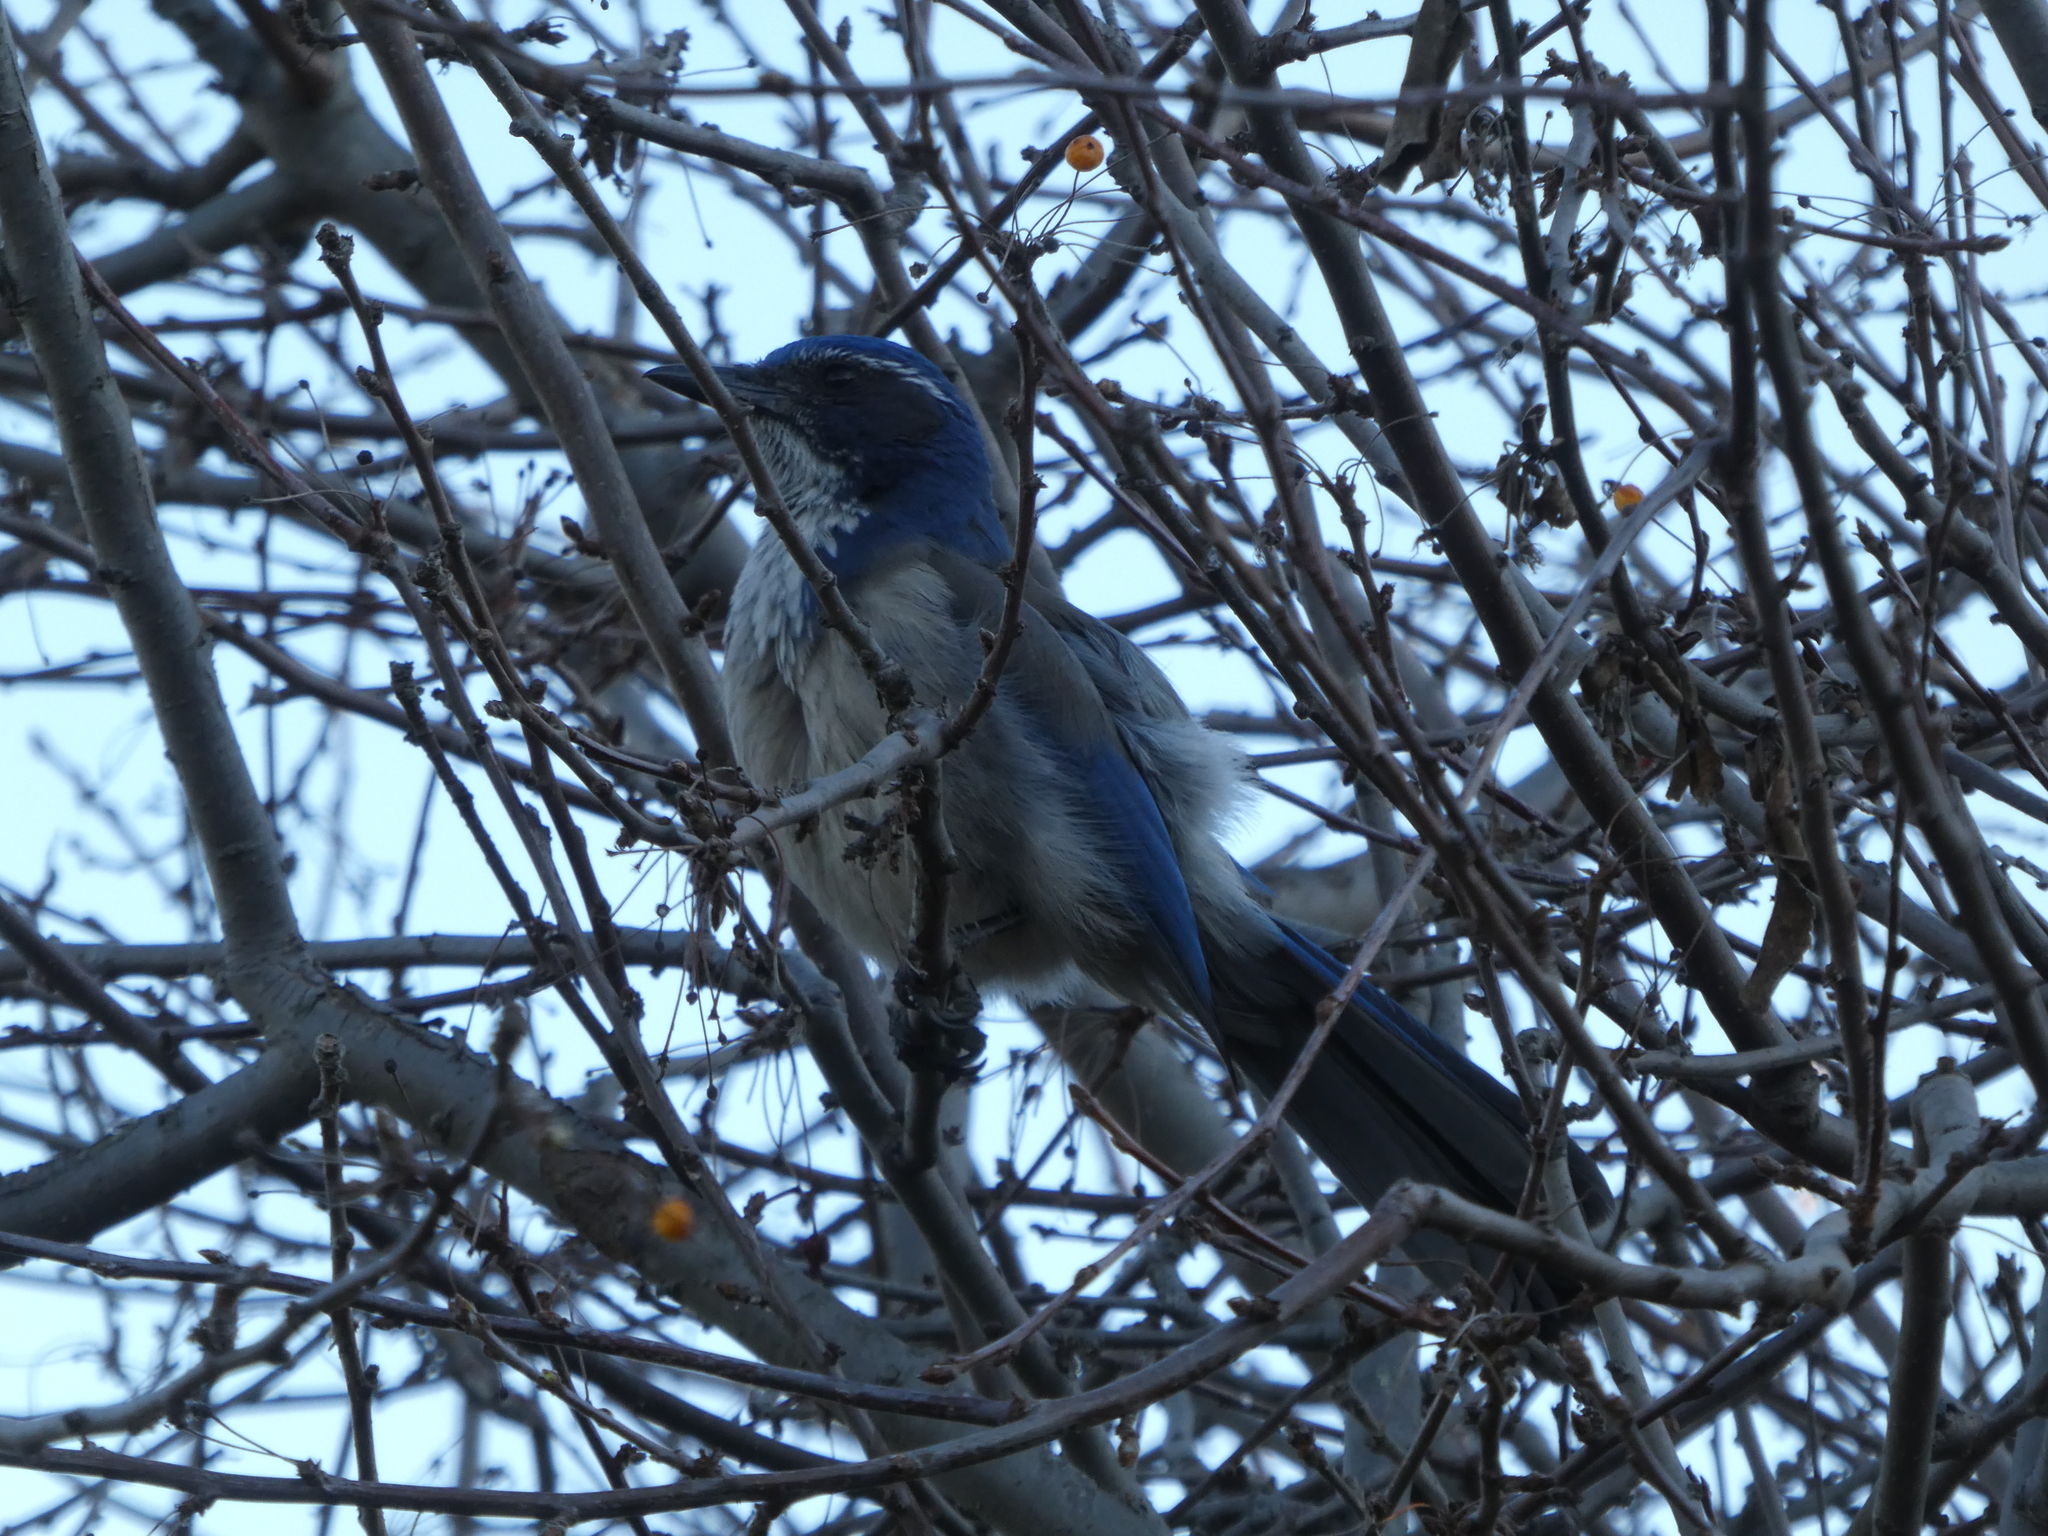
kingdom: Animalia
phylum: Chordata
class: Aves
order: Passeriformes
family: Corvidae
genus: Aphelocoma
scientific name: Aphelocoma californica
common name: California scrub-jay
